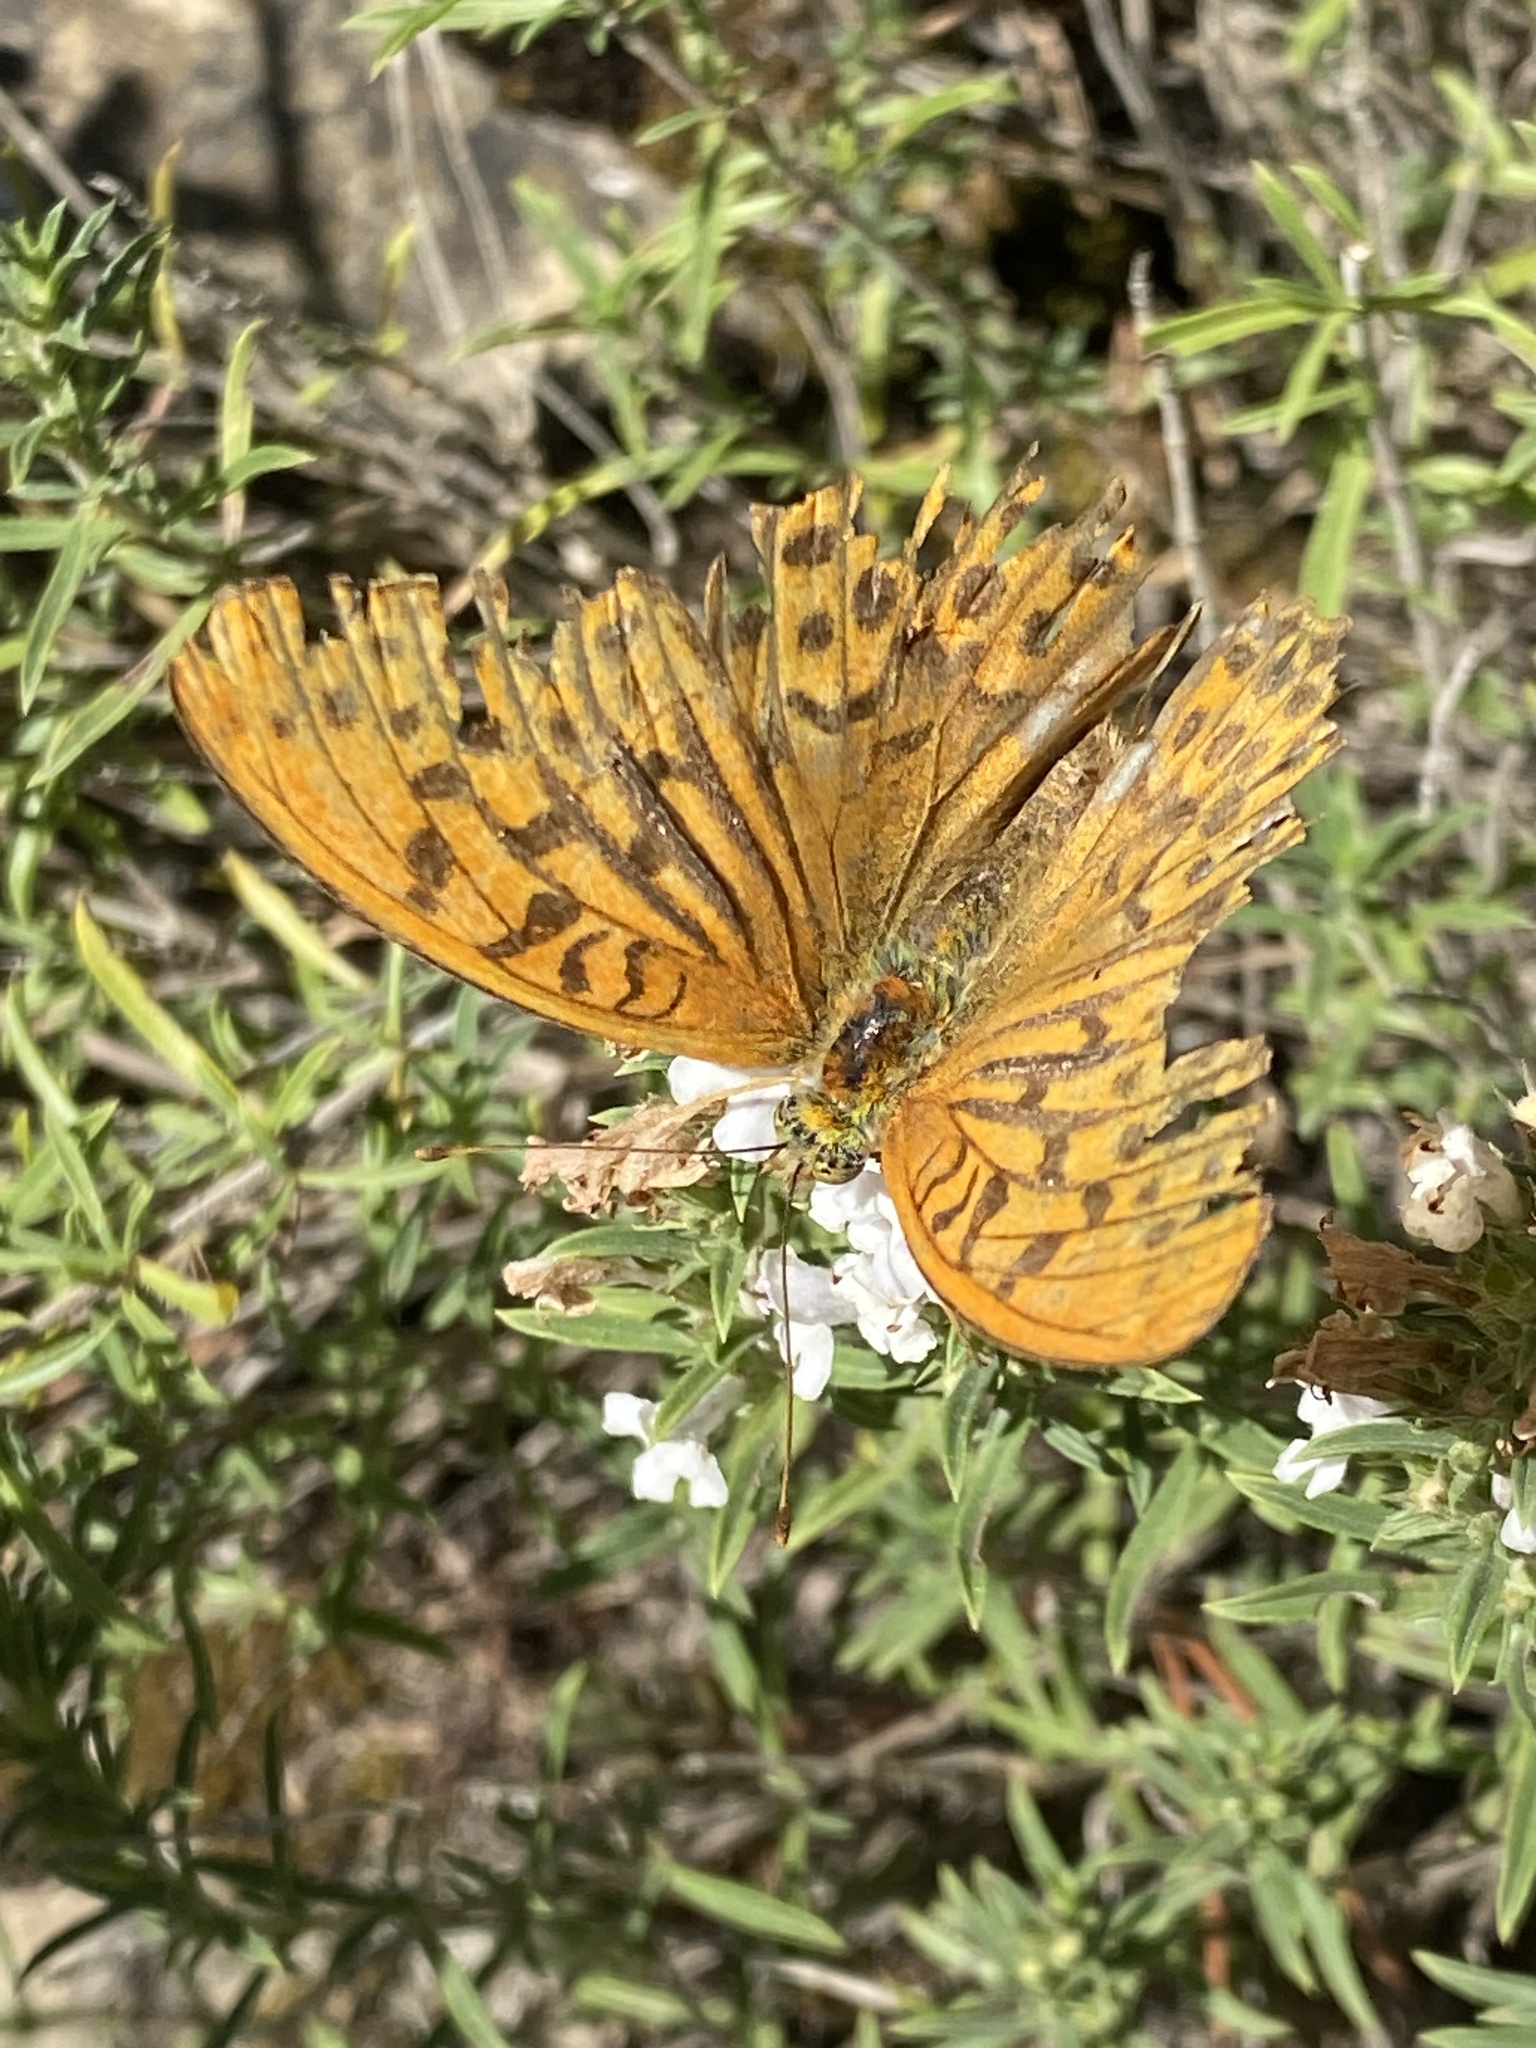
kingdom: Animalia
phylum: Arthropoda
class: Insecta
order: Lepidoptera
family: Nymphalidae
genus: Argynnis
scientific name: Argynnis paphia
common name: Silver-washed fritillary
